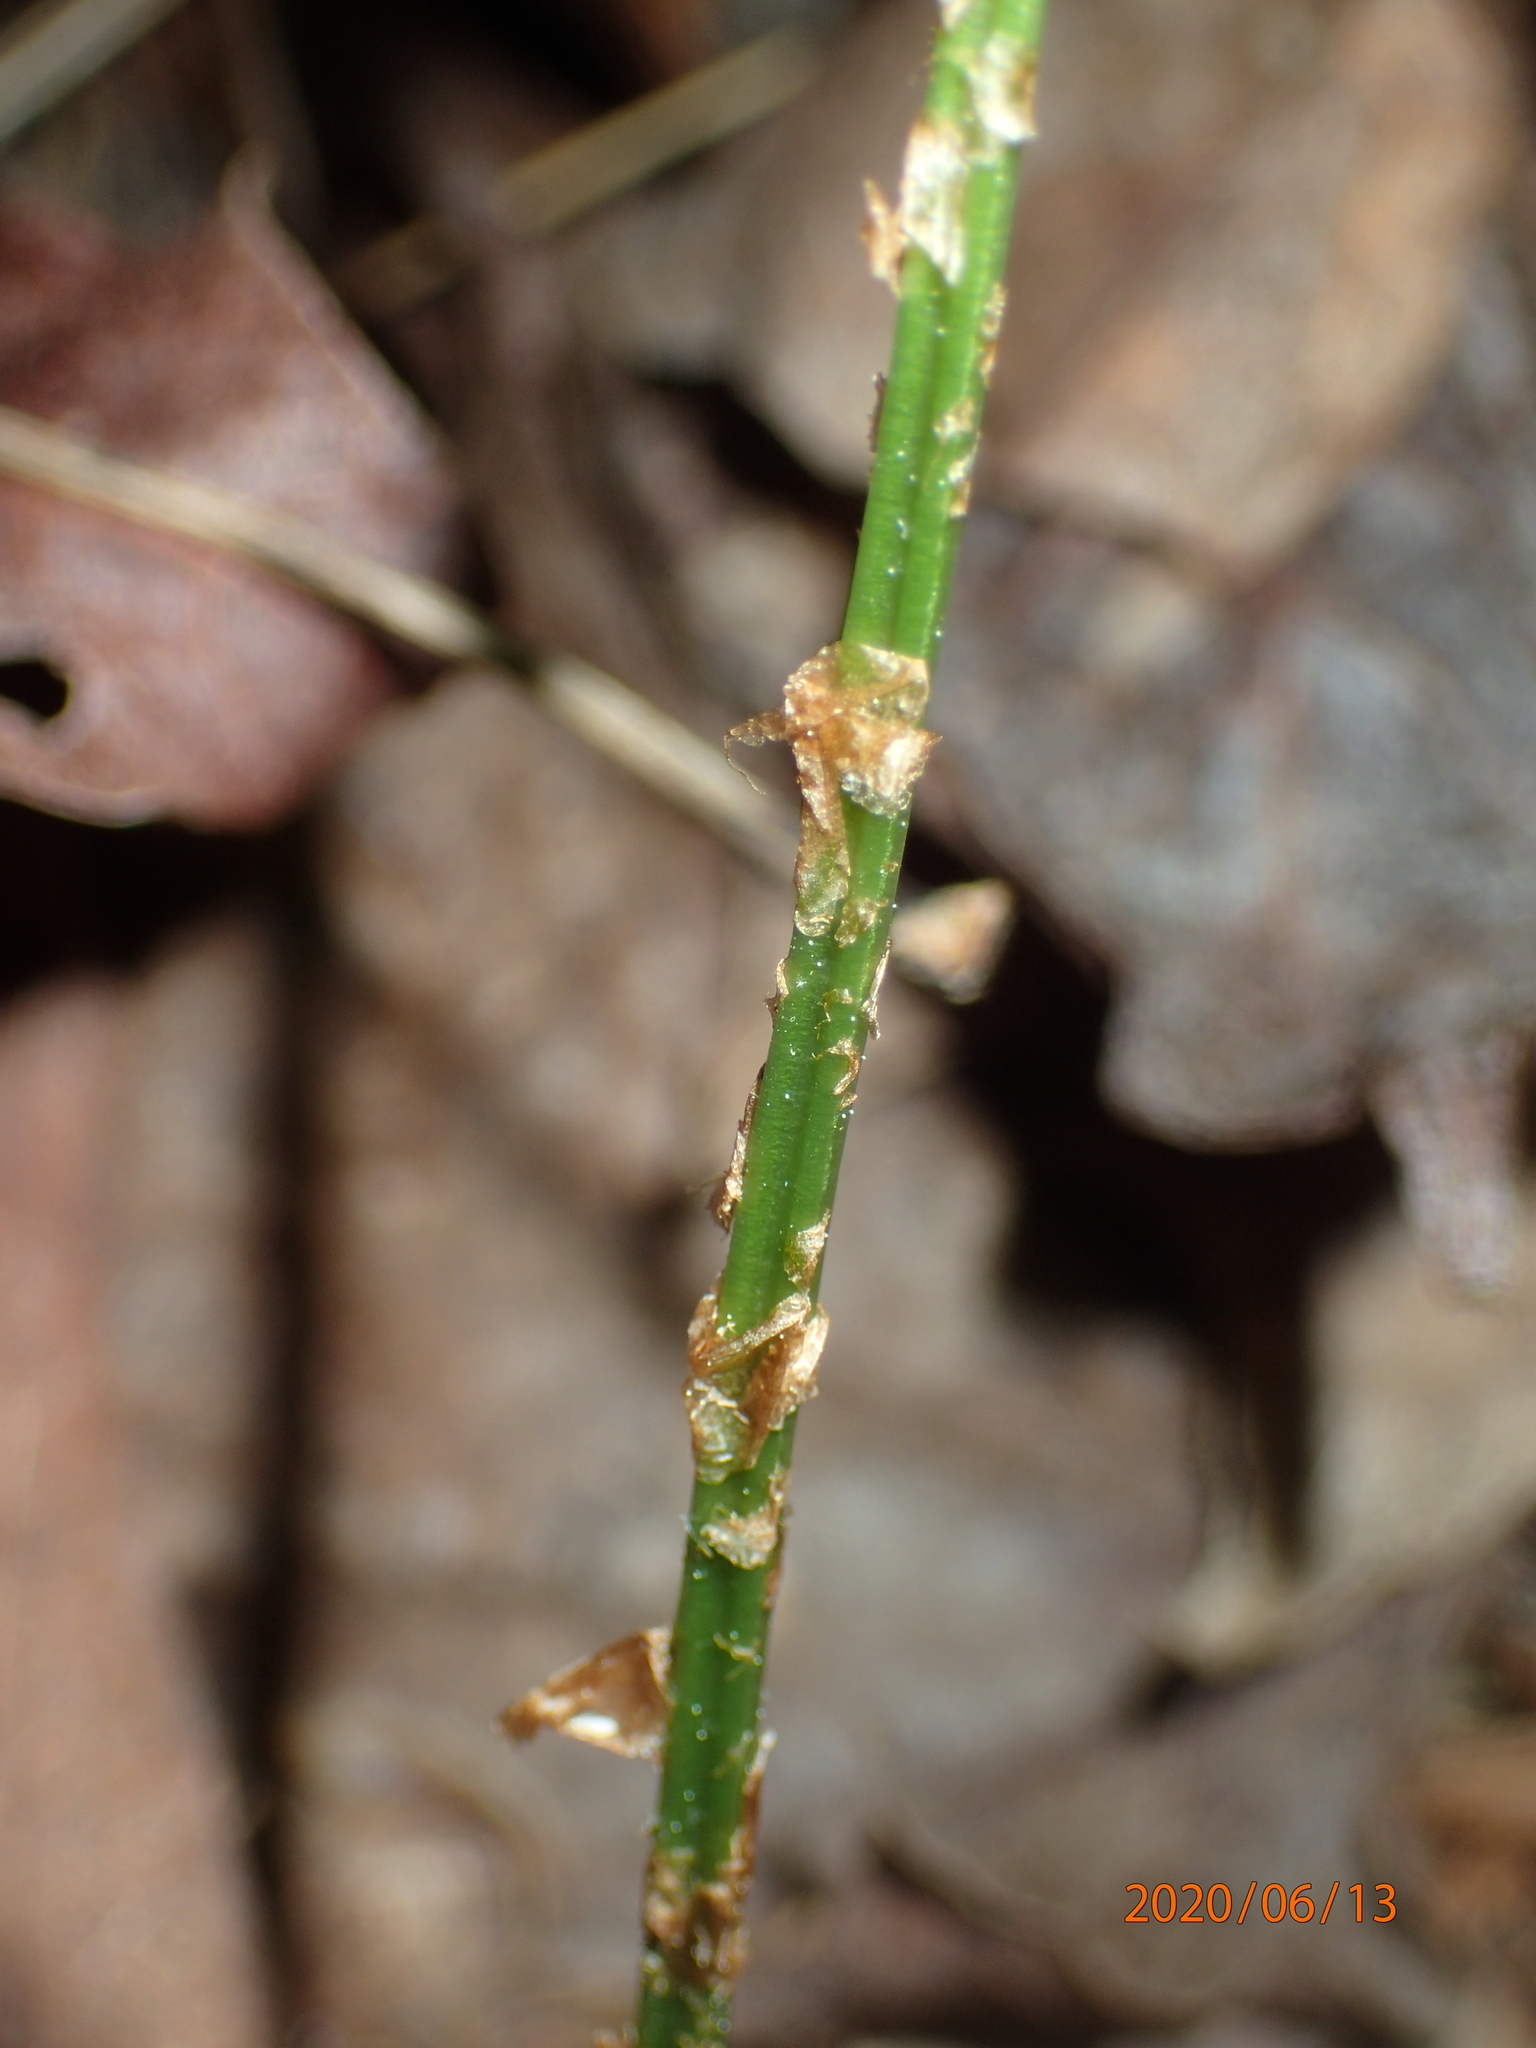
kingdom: Plantae
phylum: Tracheophyta
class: Polypodiopsida
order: Polypodiales
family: Dryopteridaceae
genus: Dryopteris
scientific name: Dryopteris carthusiana
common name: Narrow buckler-fern
